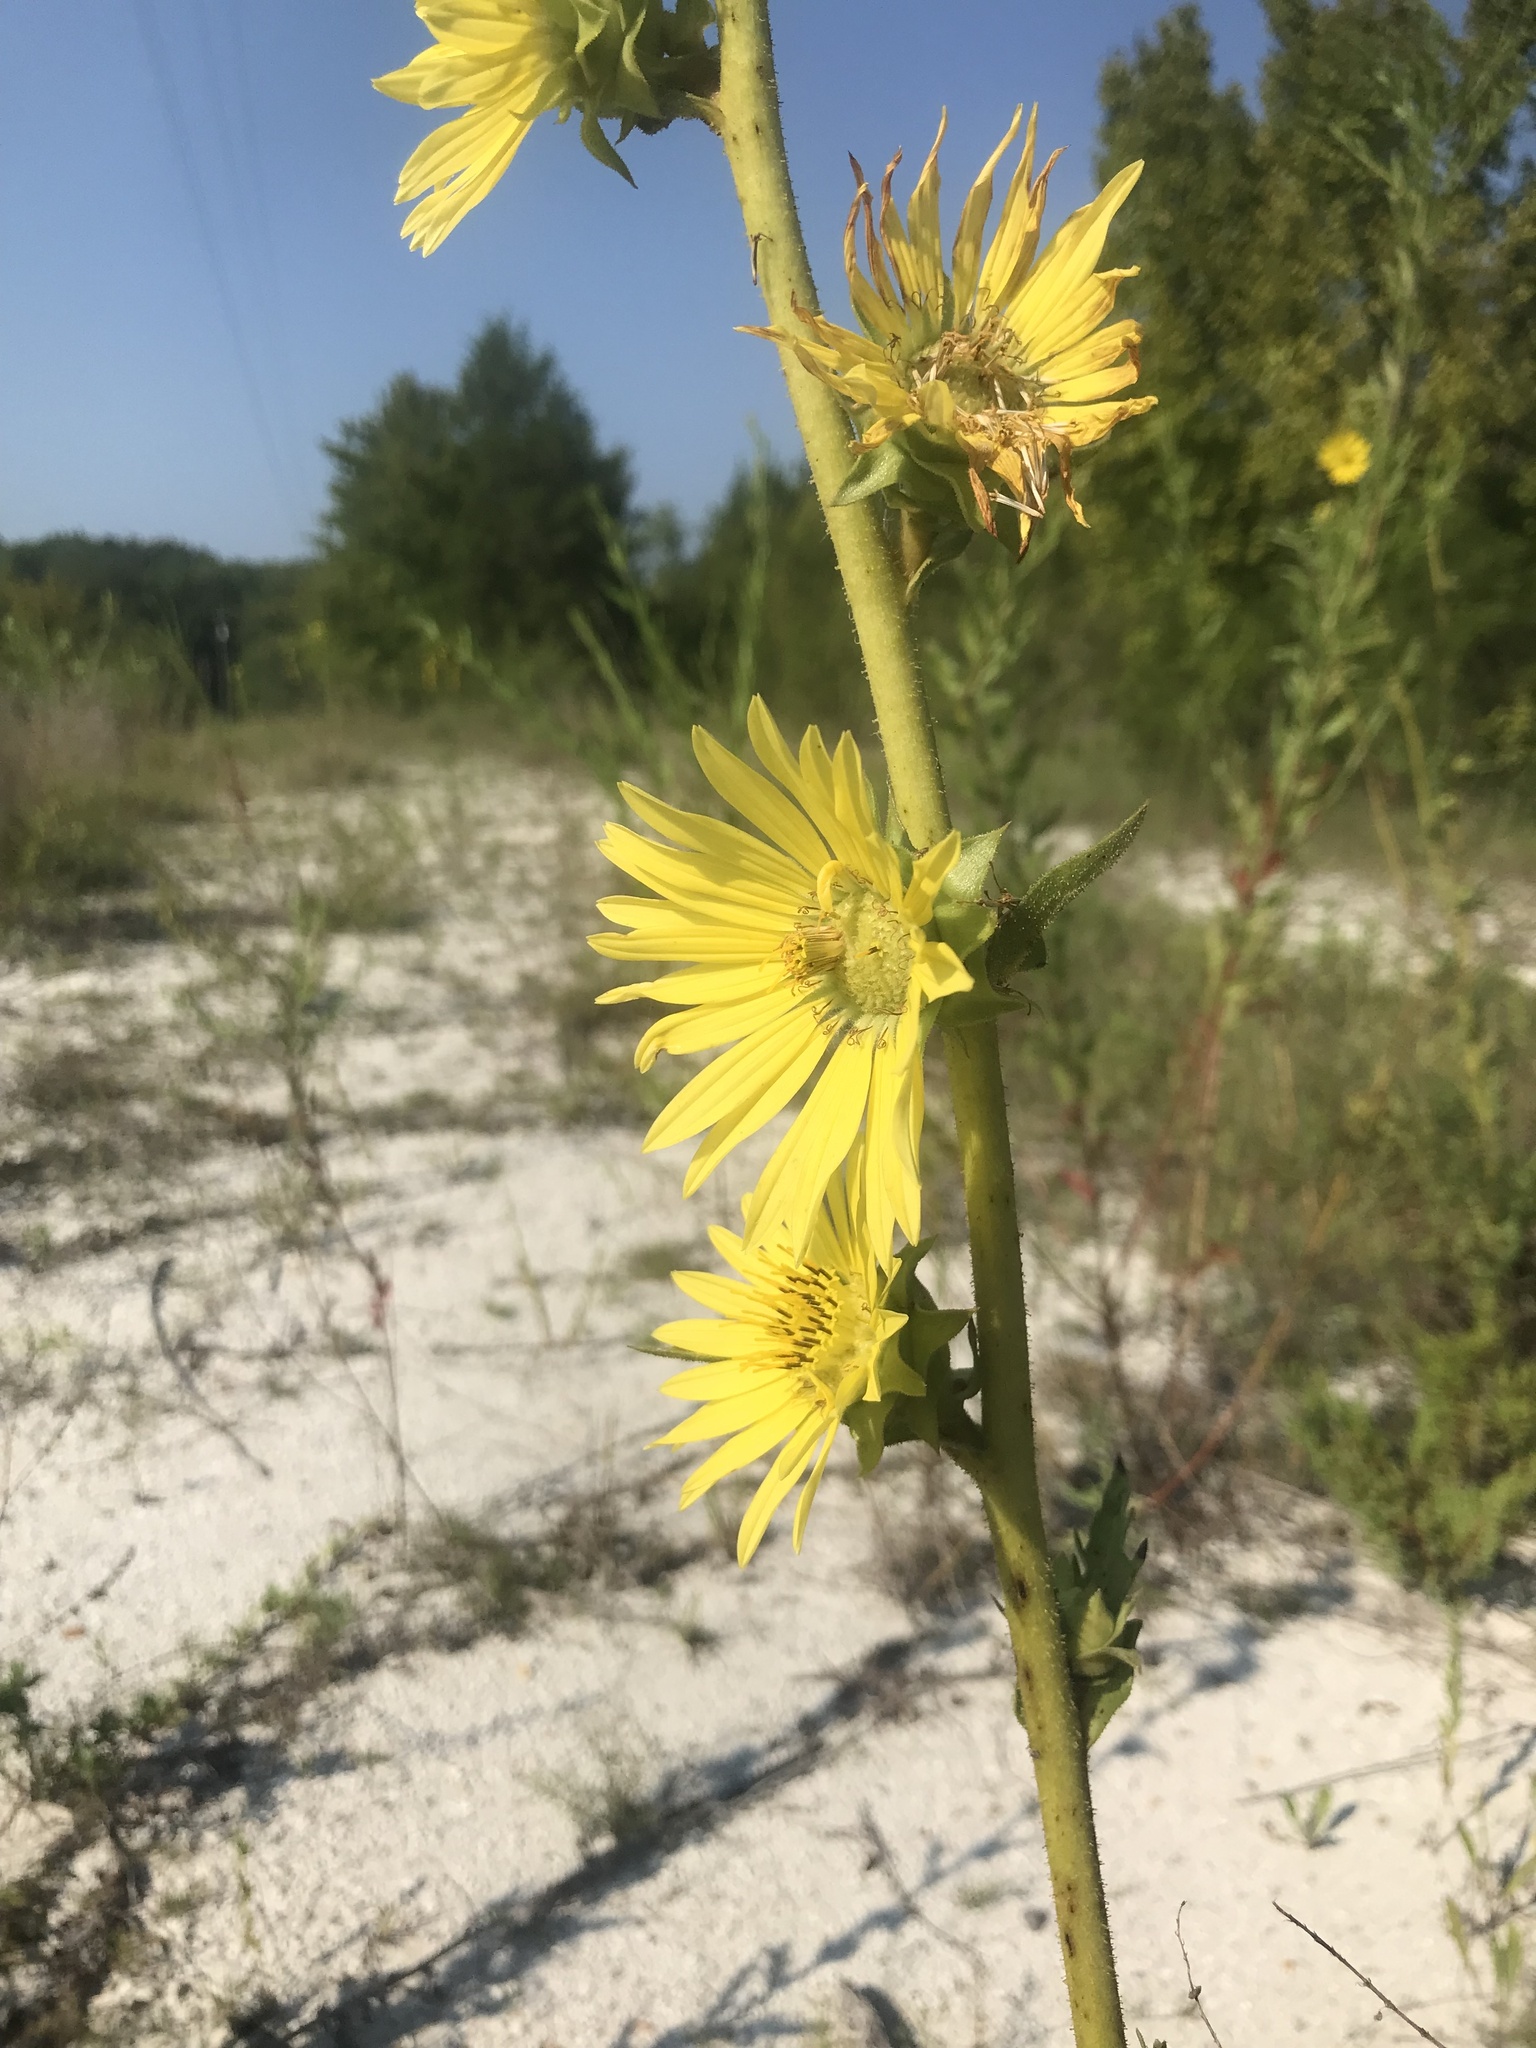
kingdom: Plantae
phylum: Tracheophyta
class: Magnoliopsida
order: Asterales
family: Asteraceae
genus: Silphium
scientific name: Silphium laciniatum
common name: Polarplant
